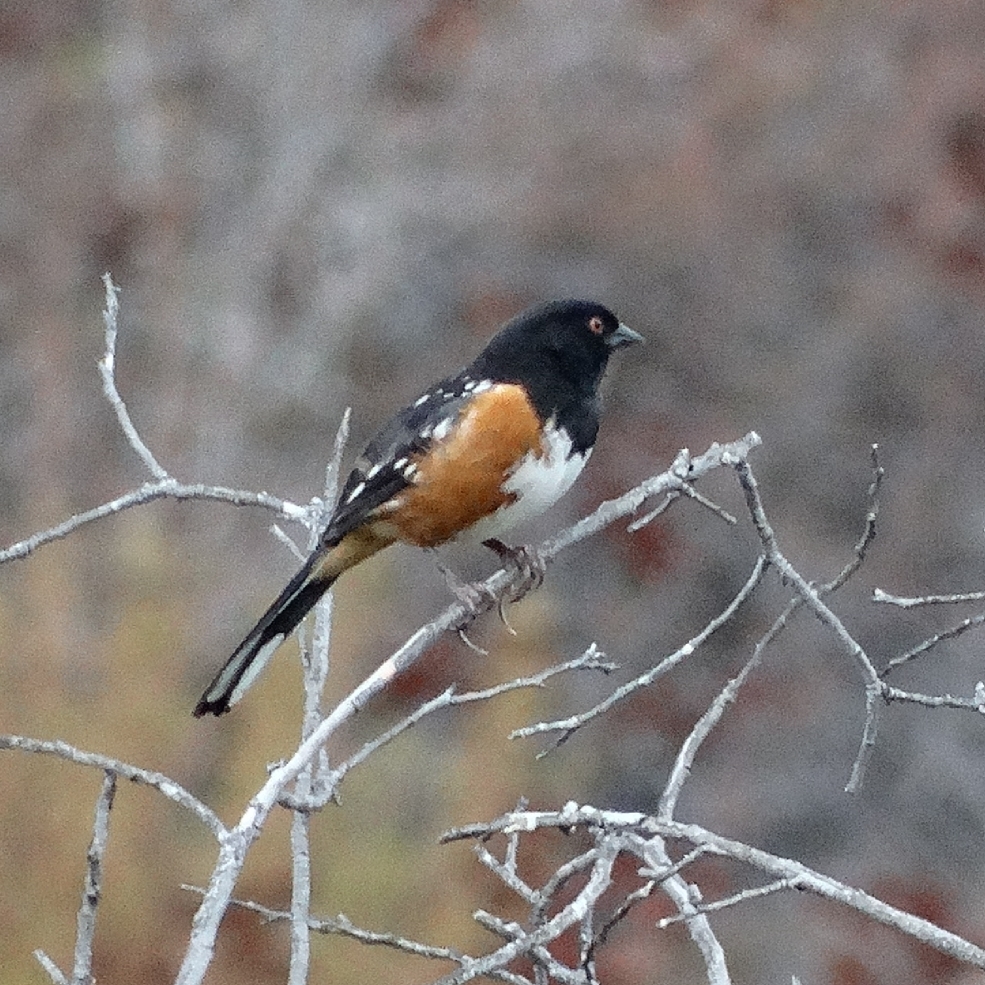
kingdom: Animalia
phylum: Chordata
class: Aves
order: Passeriformes
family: Passerellidae
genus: Pipilo
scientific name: Pipilo maculatus
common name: Spotted towhee
